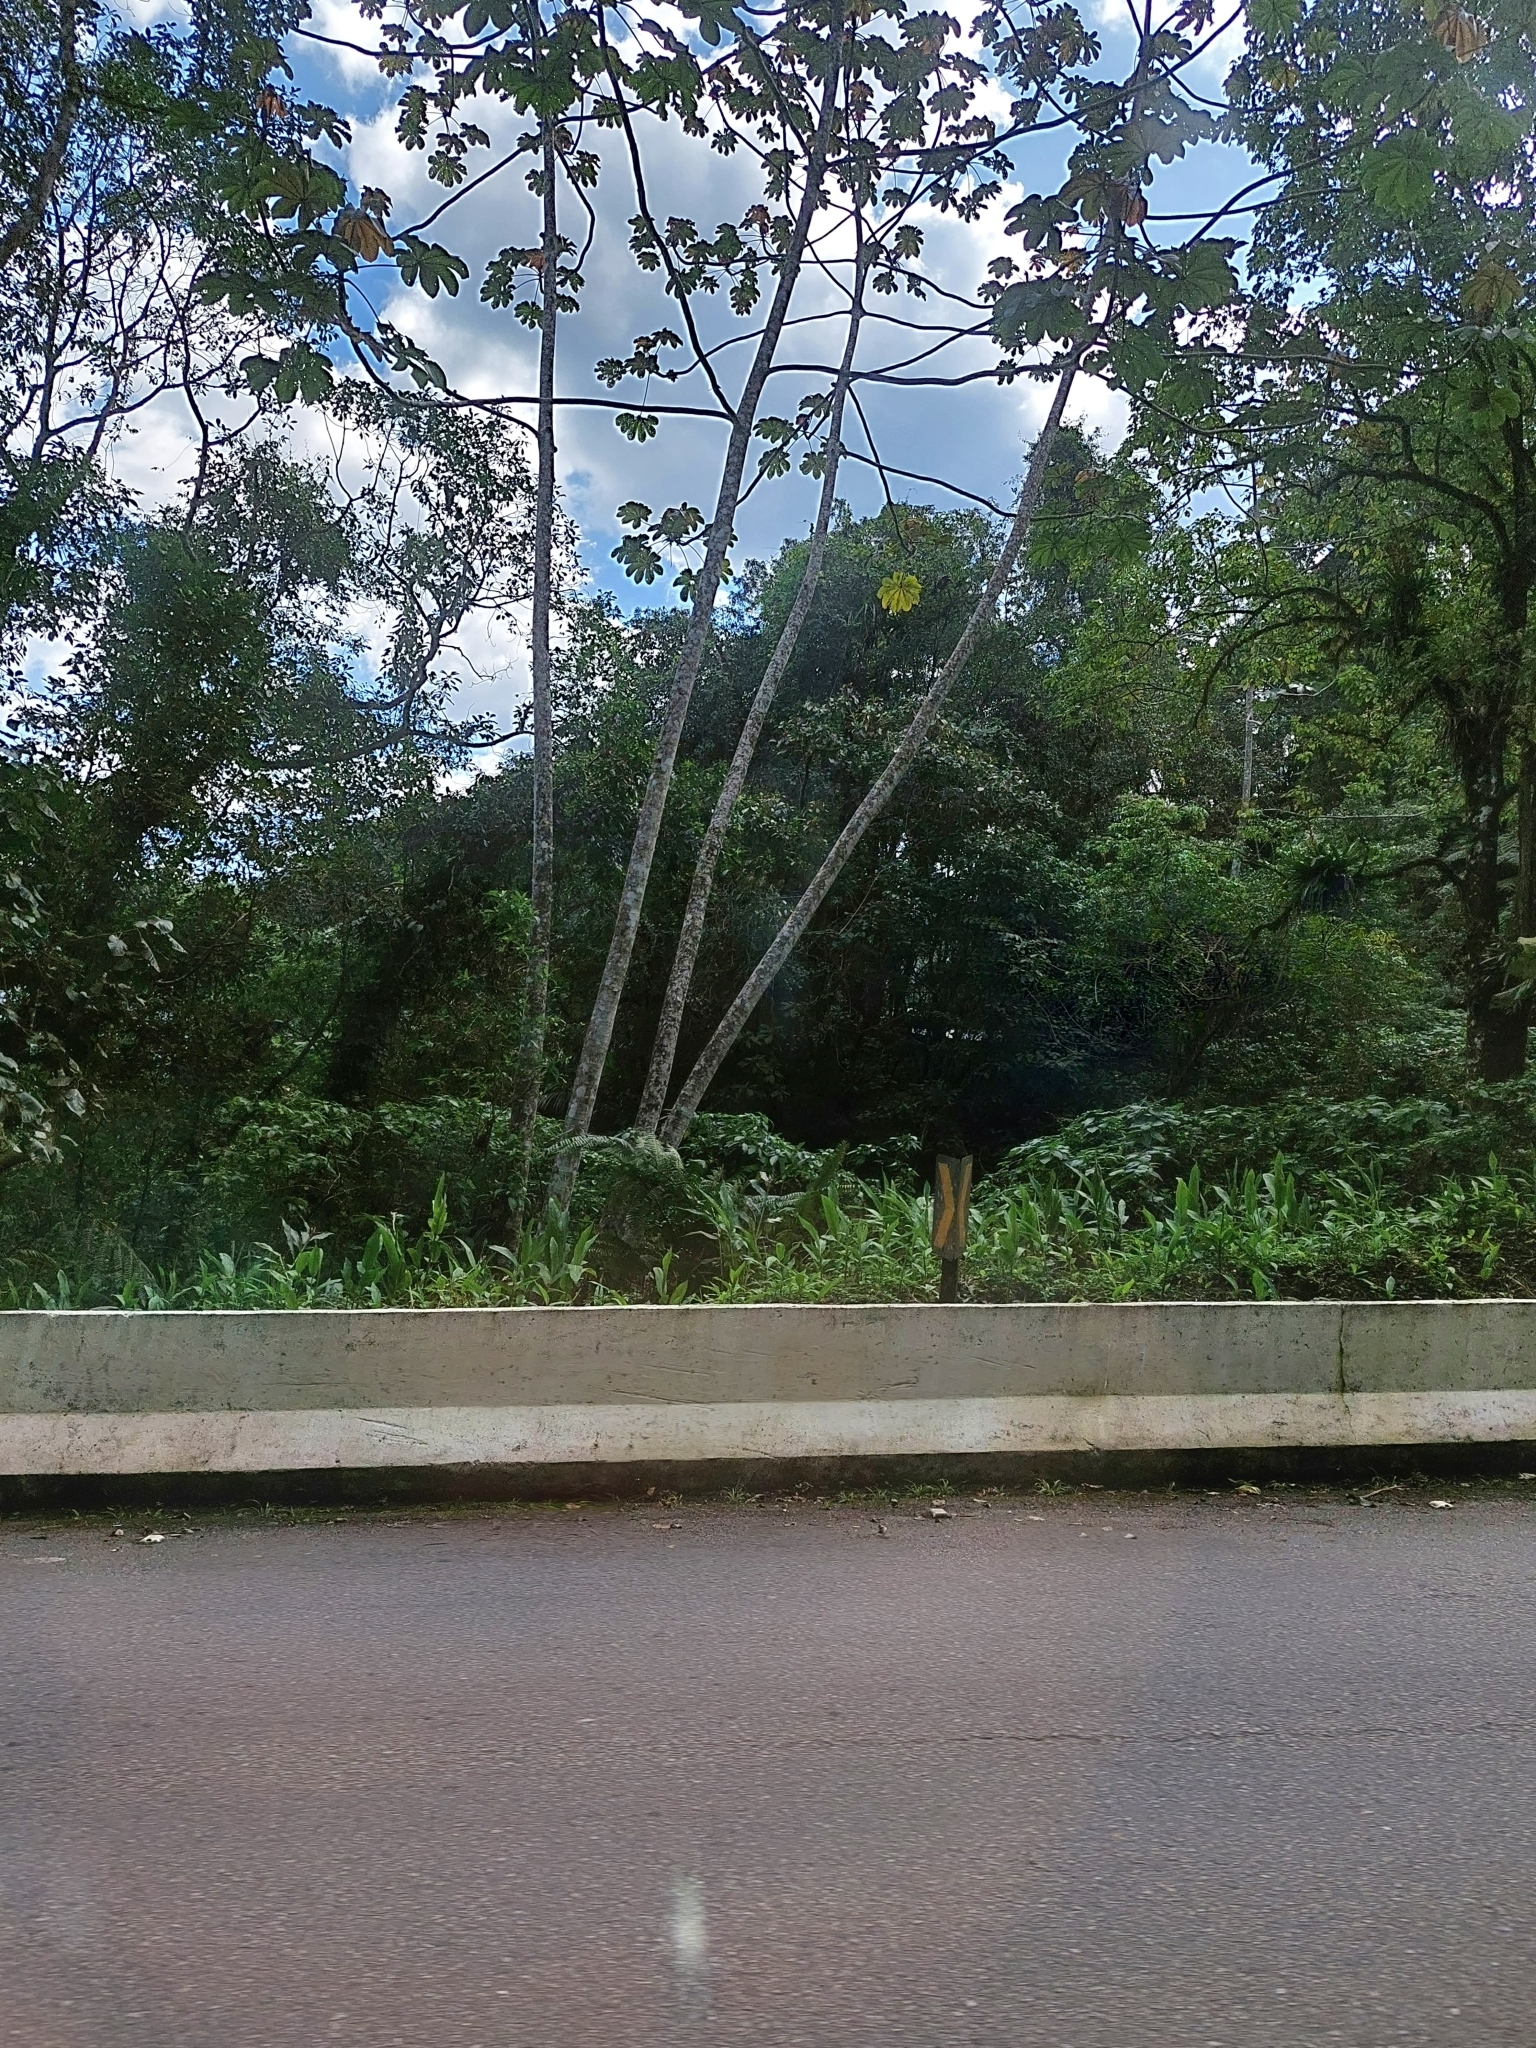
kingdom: Plantae
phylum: Tracheophyta
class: Liliopsida
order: Zingiberales
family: Zingiberaceae
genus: Hedychium
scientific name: Hedychium coronarium
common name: White garland-lily
